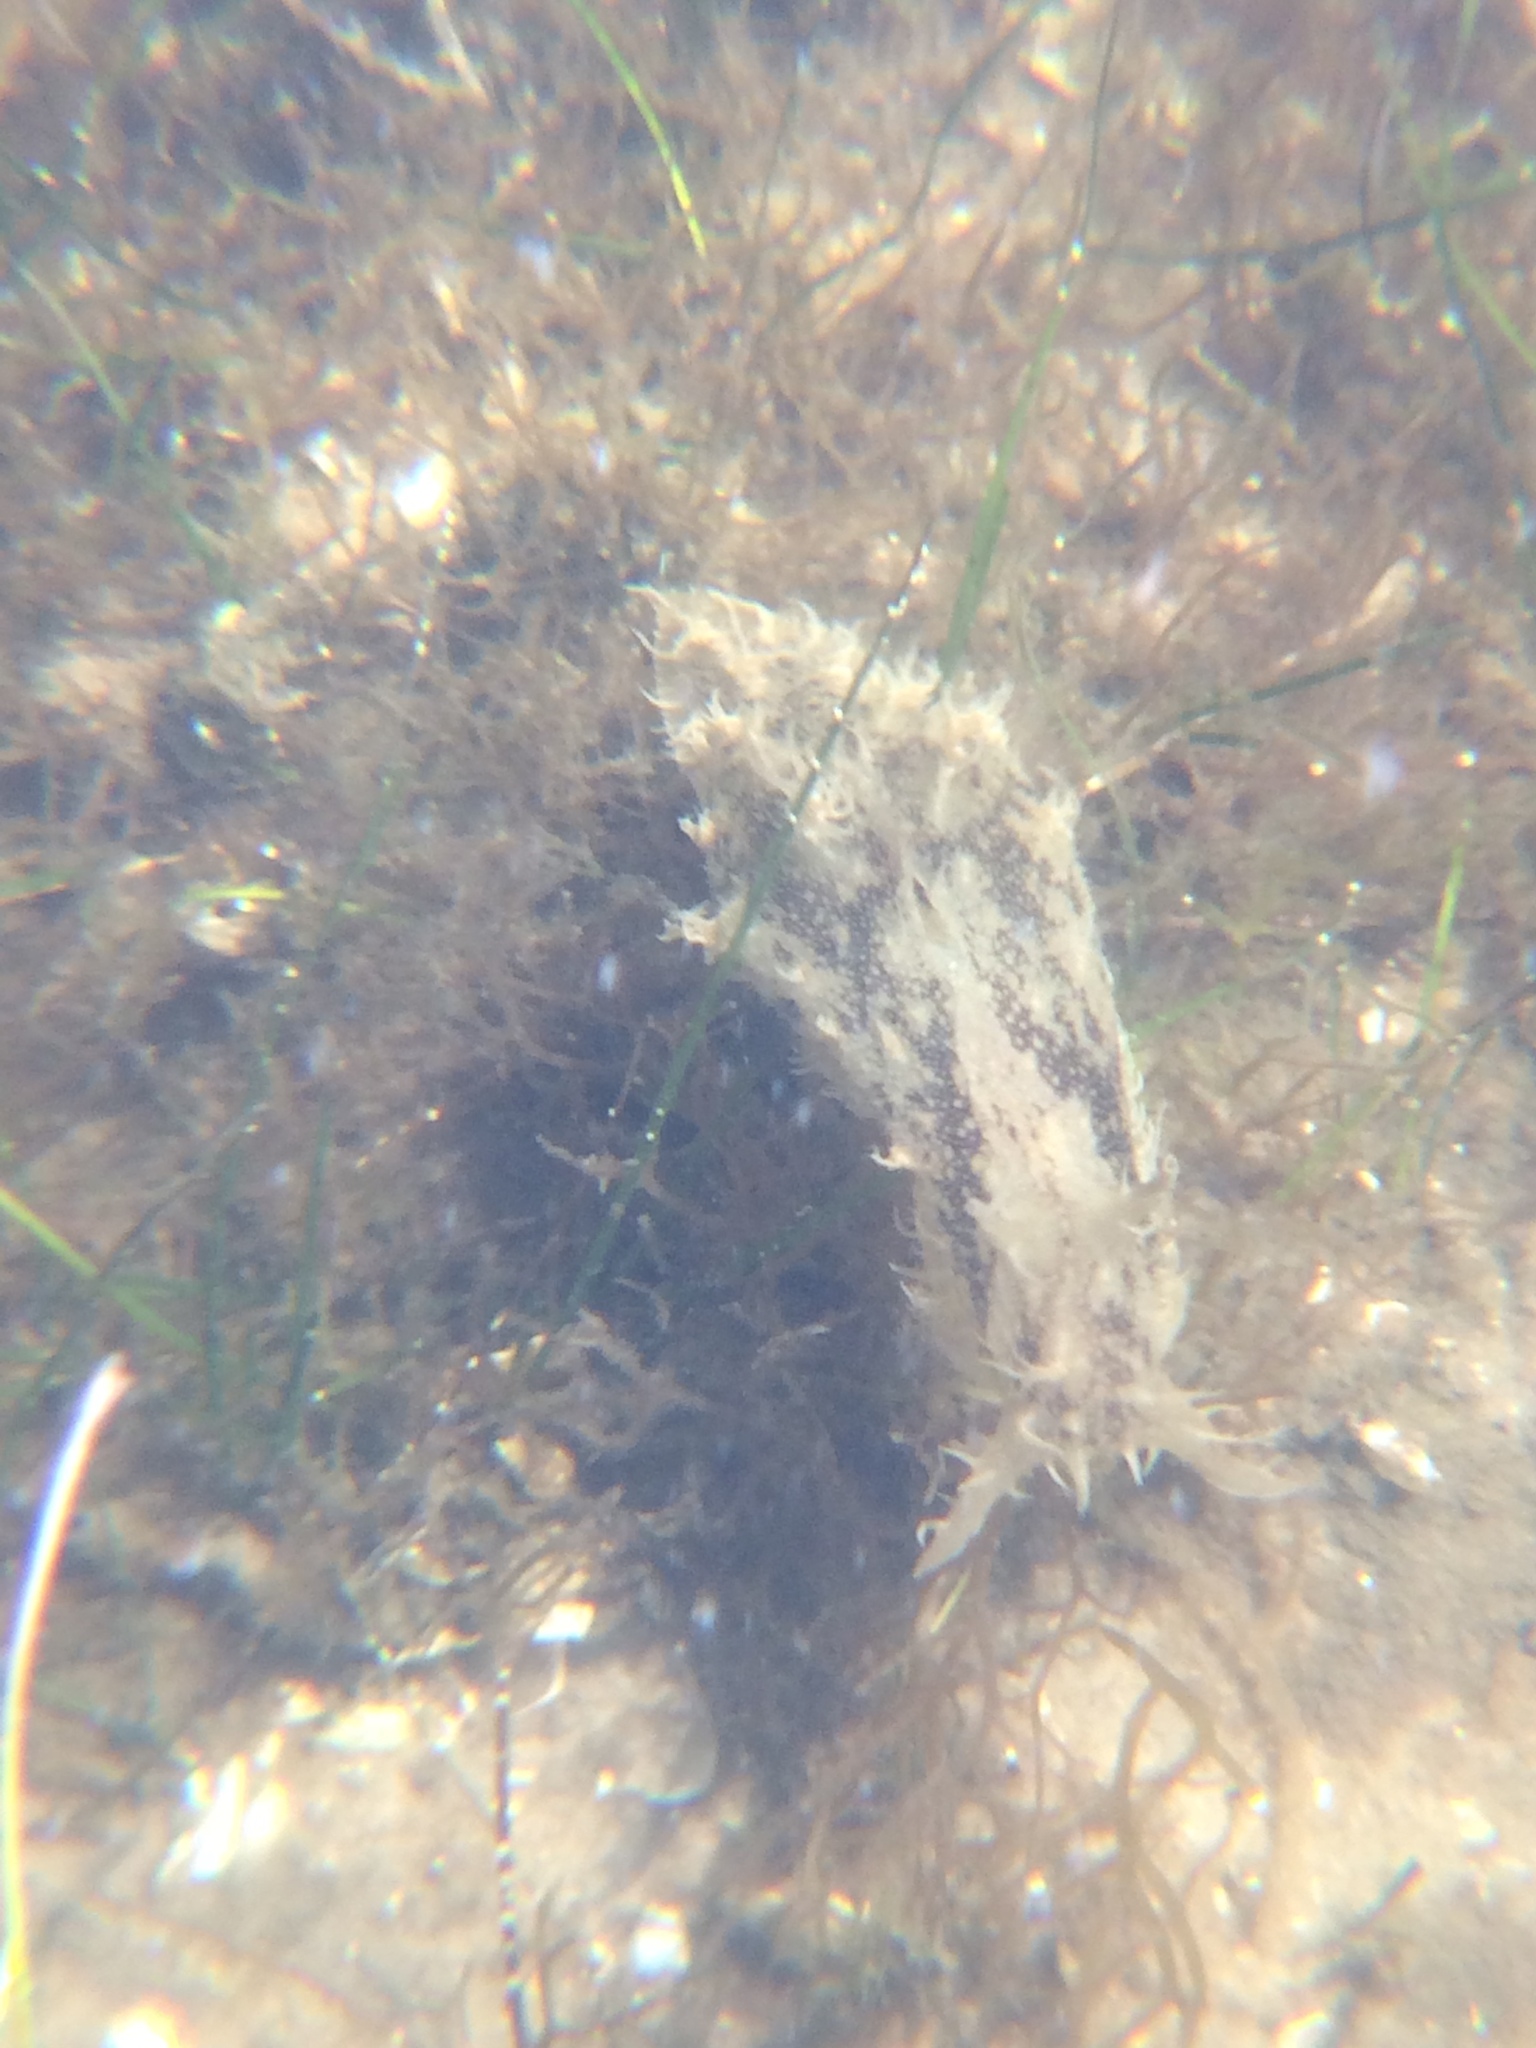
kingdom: Animalia
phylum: Mollusca
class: Gastropoda
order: Aplysiida
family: Aplysiidae
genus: Bursatella
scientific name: Bursatella leachii
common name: Shaggy sea hare
